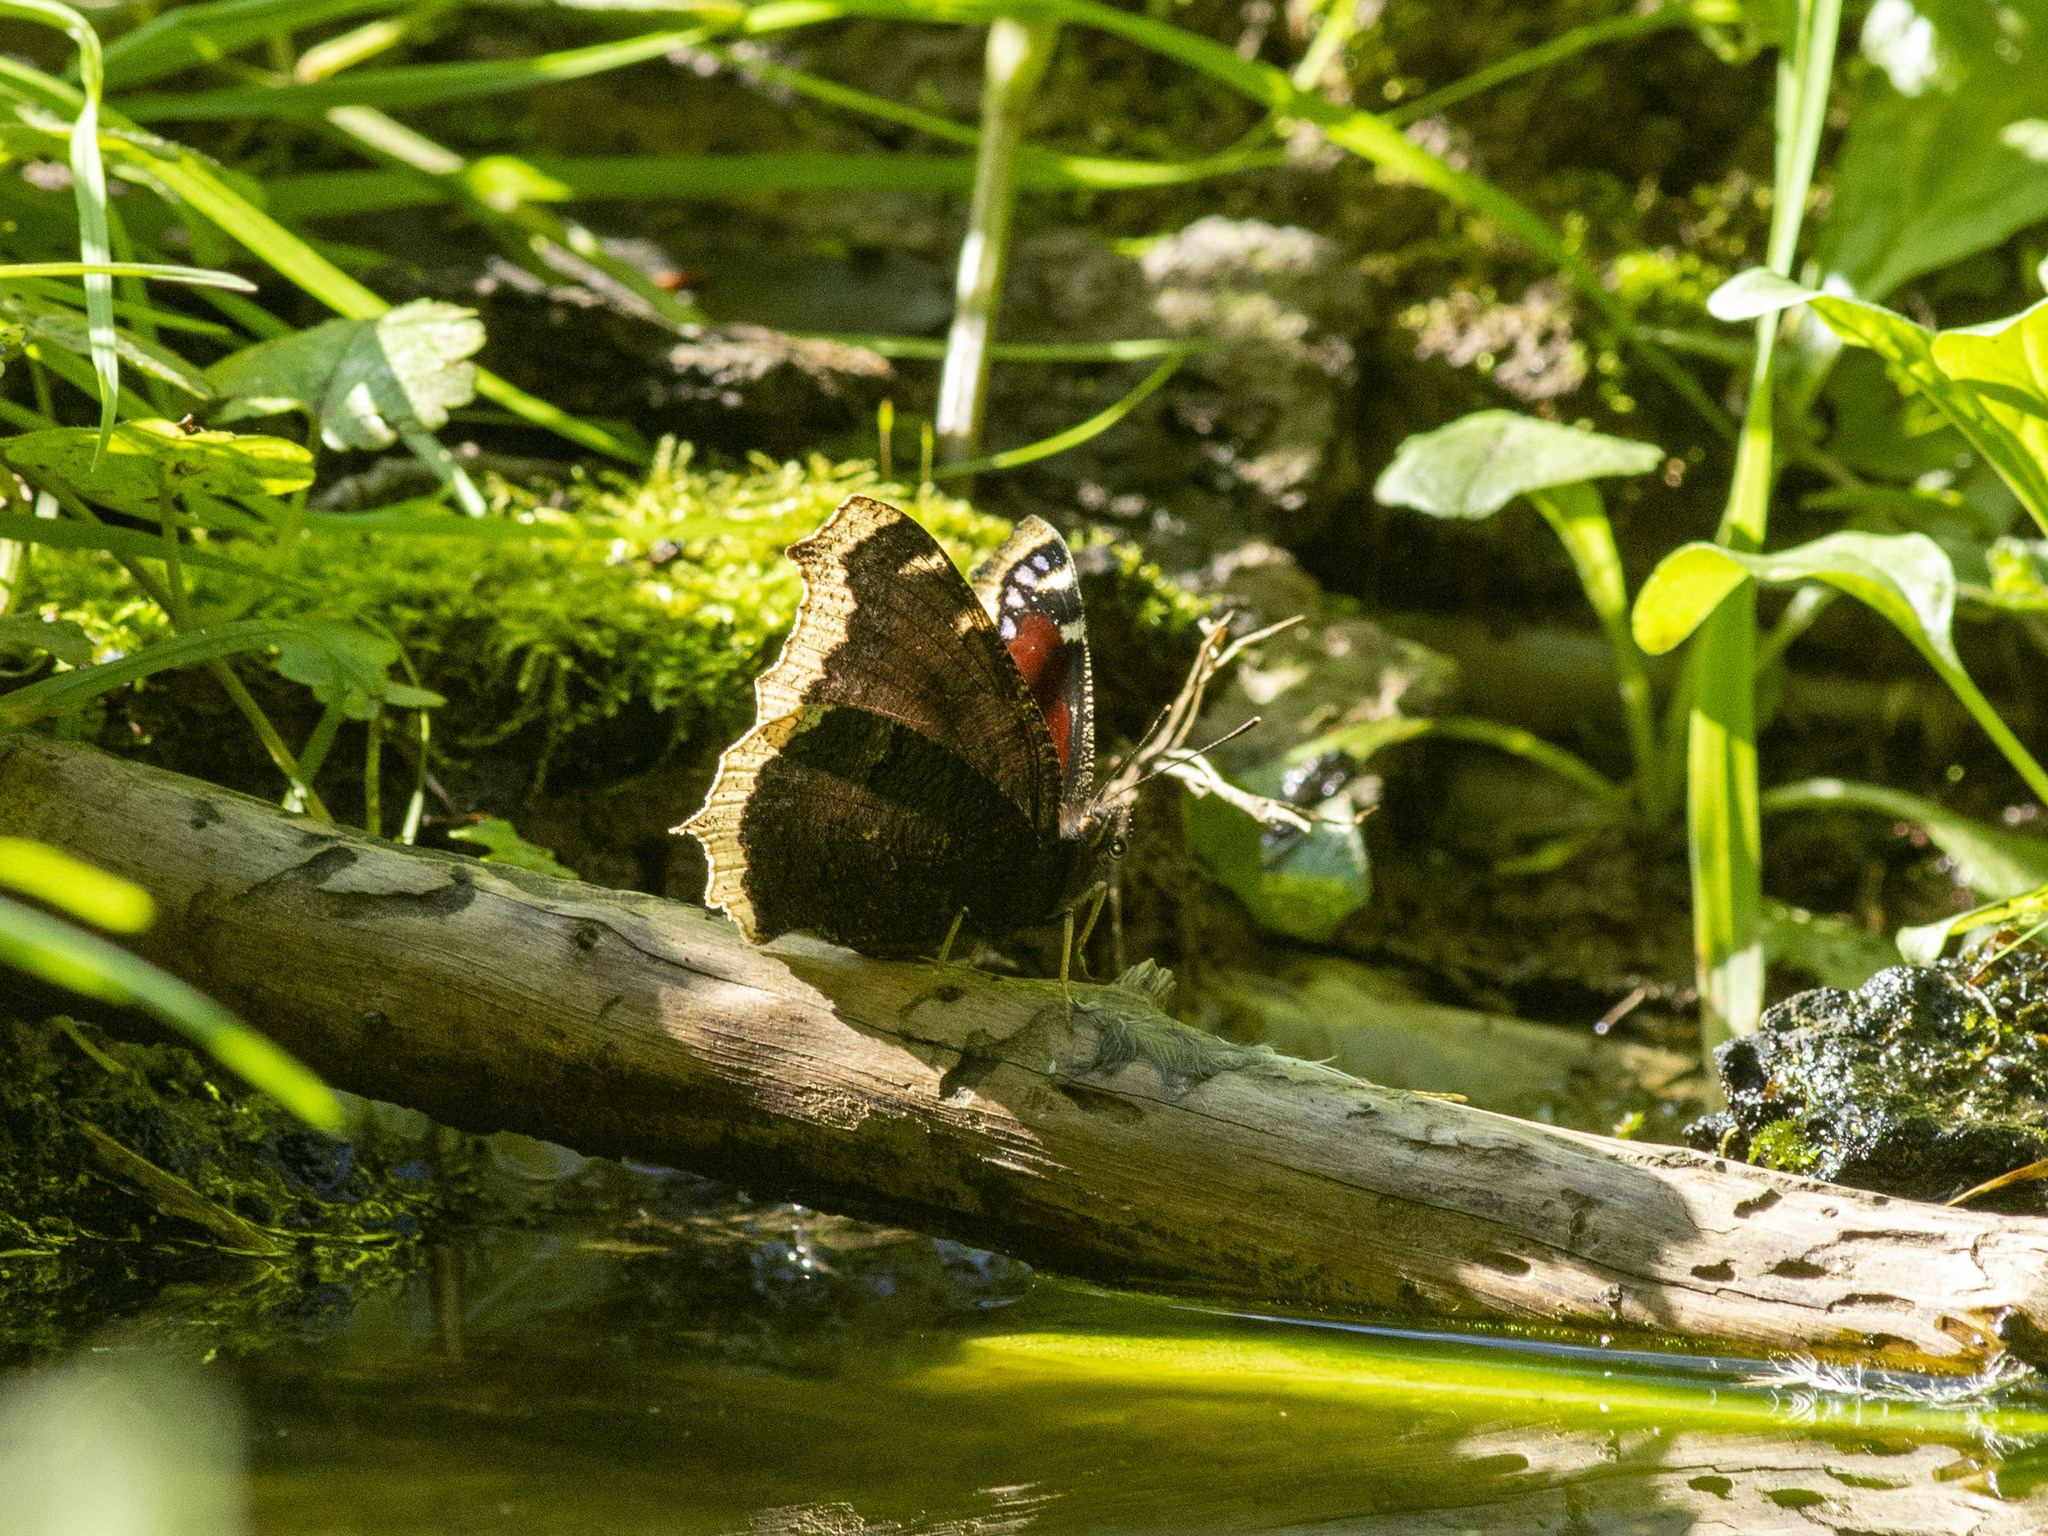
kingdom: Animalia
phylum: Arthropoda
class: Insecta
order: Lepidoptera
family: Nymphalidae
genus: Nymphalis
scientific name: Nymphalis antiopa
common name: Camberwell beauty
